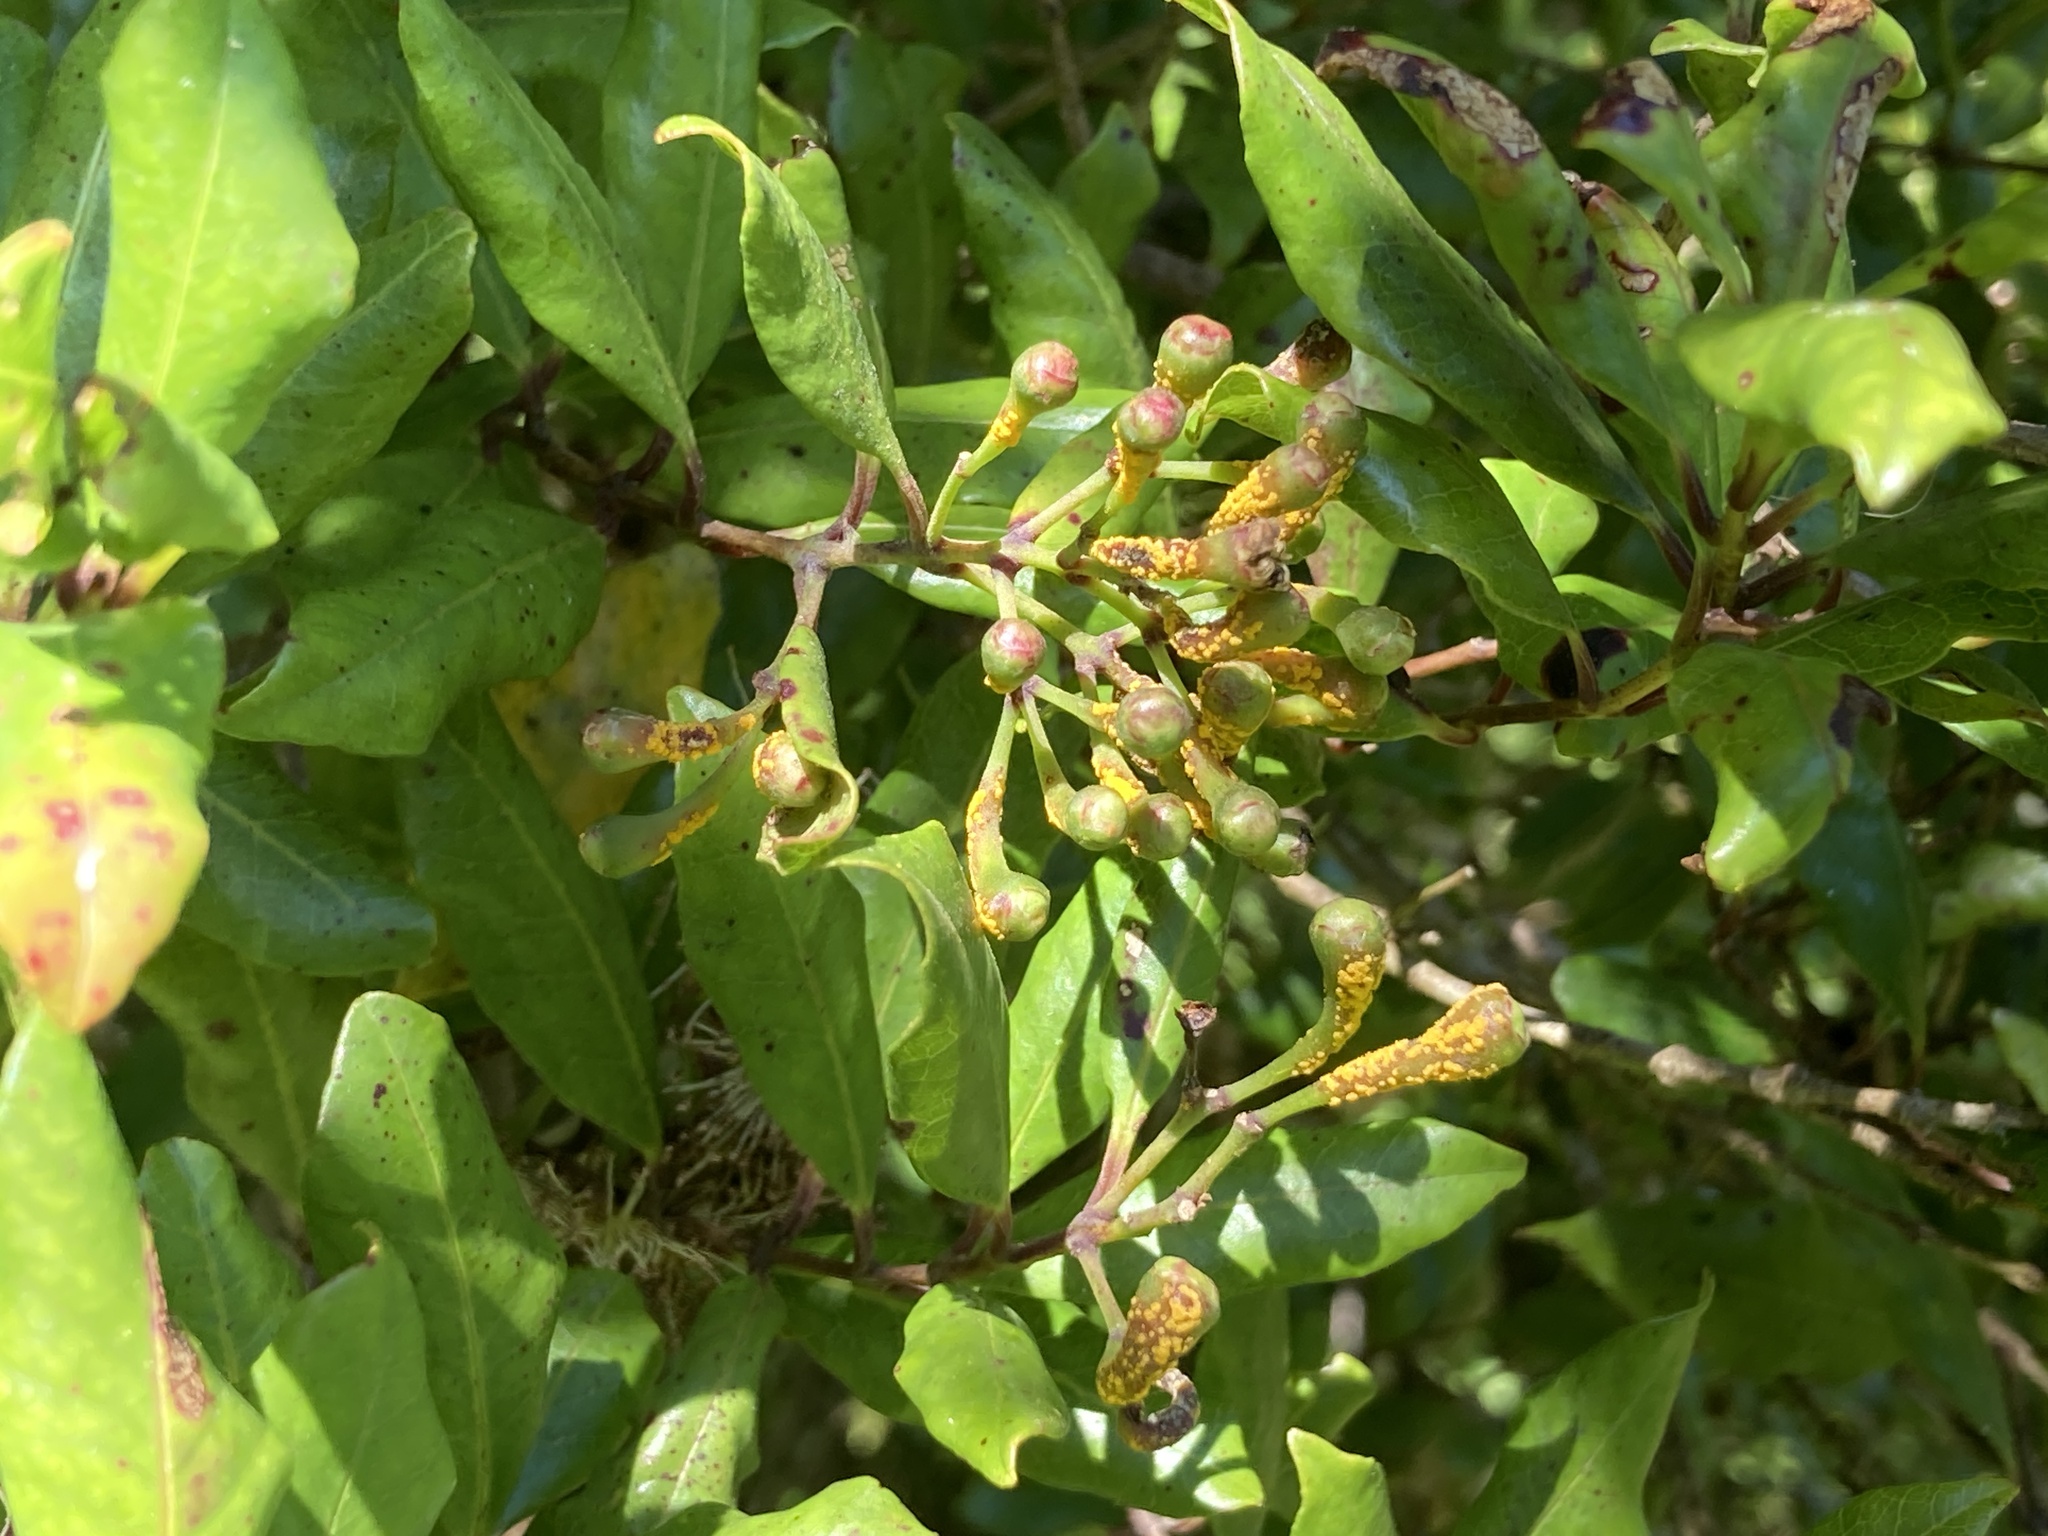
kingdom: Fungi
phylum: Basidiomycota
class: Pucciniomycetes
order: Pucciniales
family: Sphaerophragmiaceae
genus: Austropuccinia
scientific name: Austropuccinia psidii
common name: Myrtle rust
